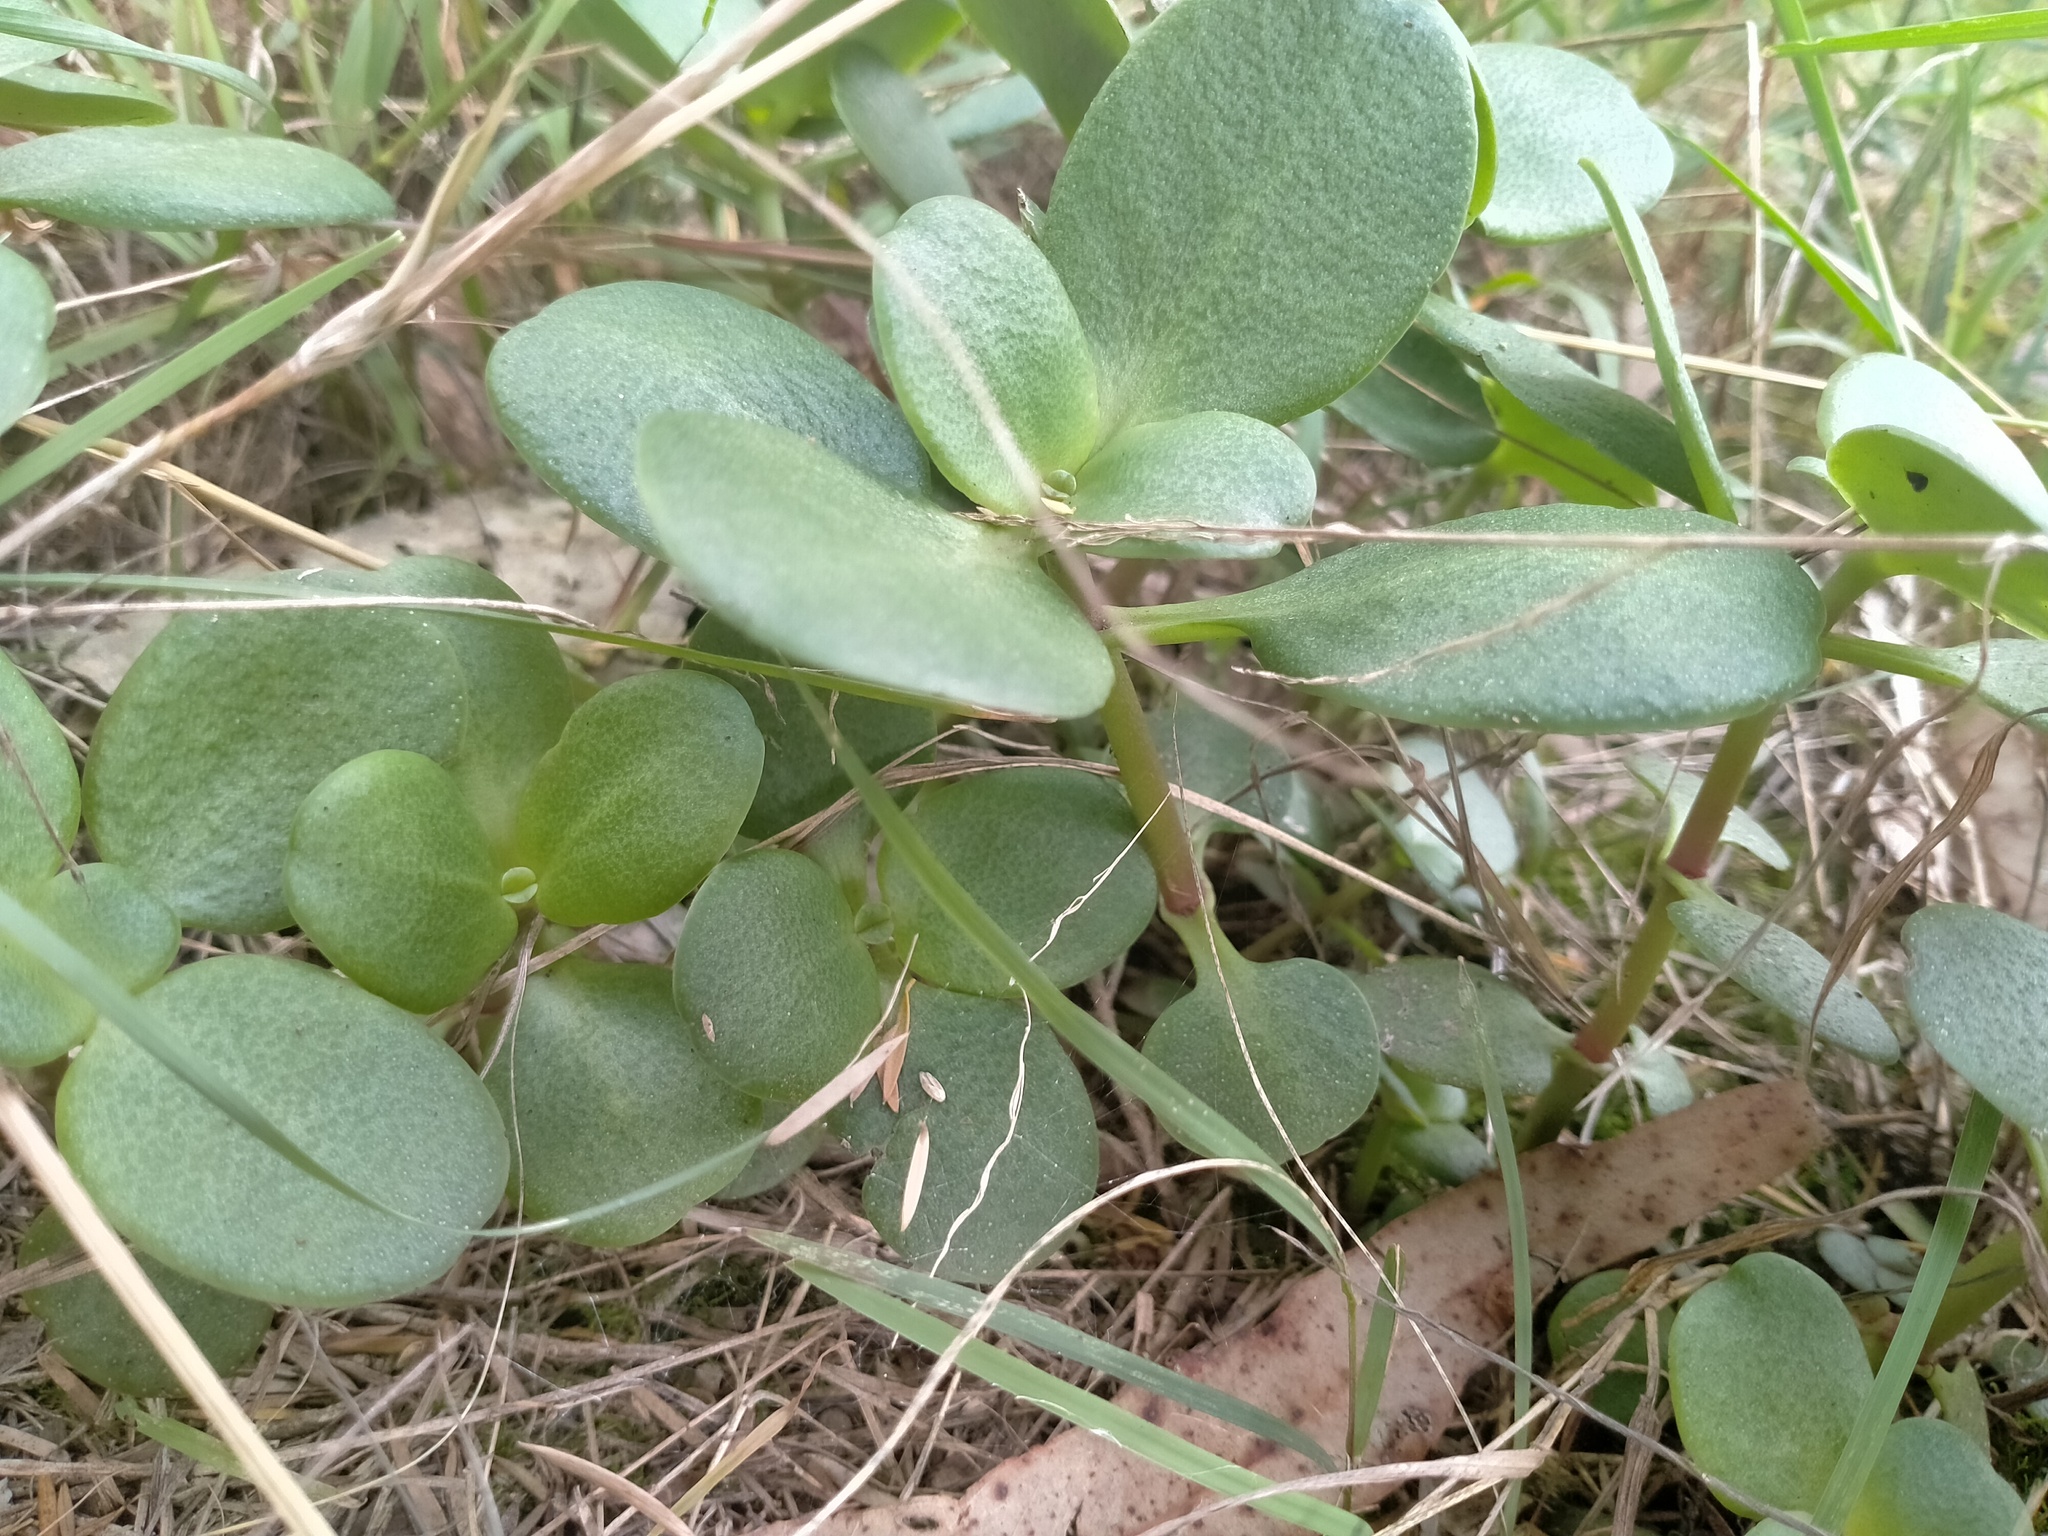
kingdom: Plantae
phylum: Tracheophyta
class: Magnoliopsida
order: Saxifragales
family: Crassulaceae
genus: Crassula
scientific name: Crassula multicava
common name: Cape province pygmyweed
